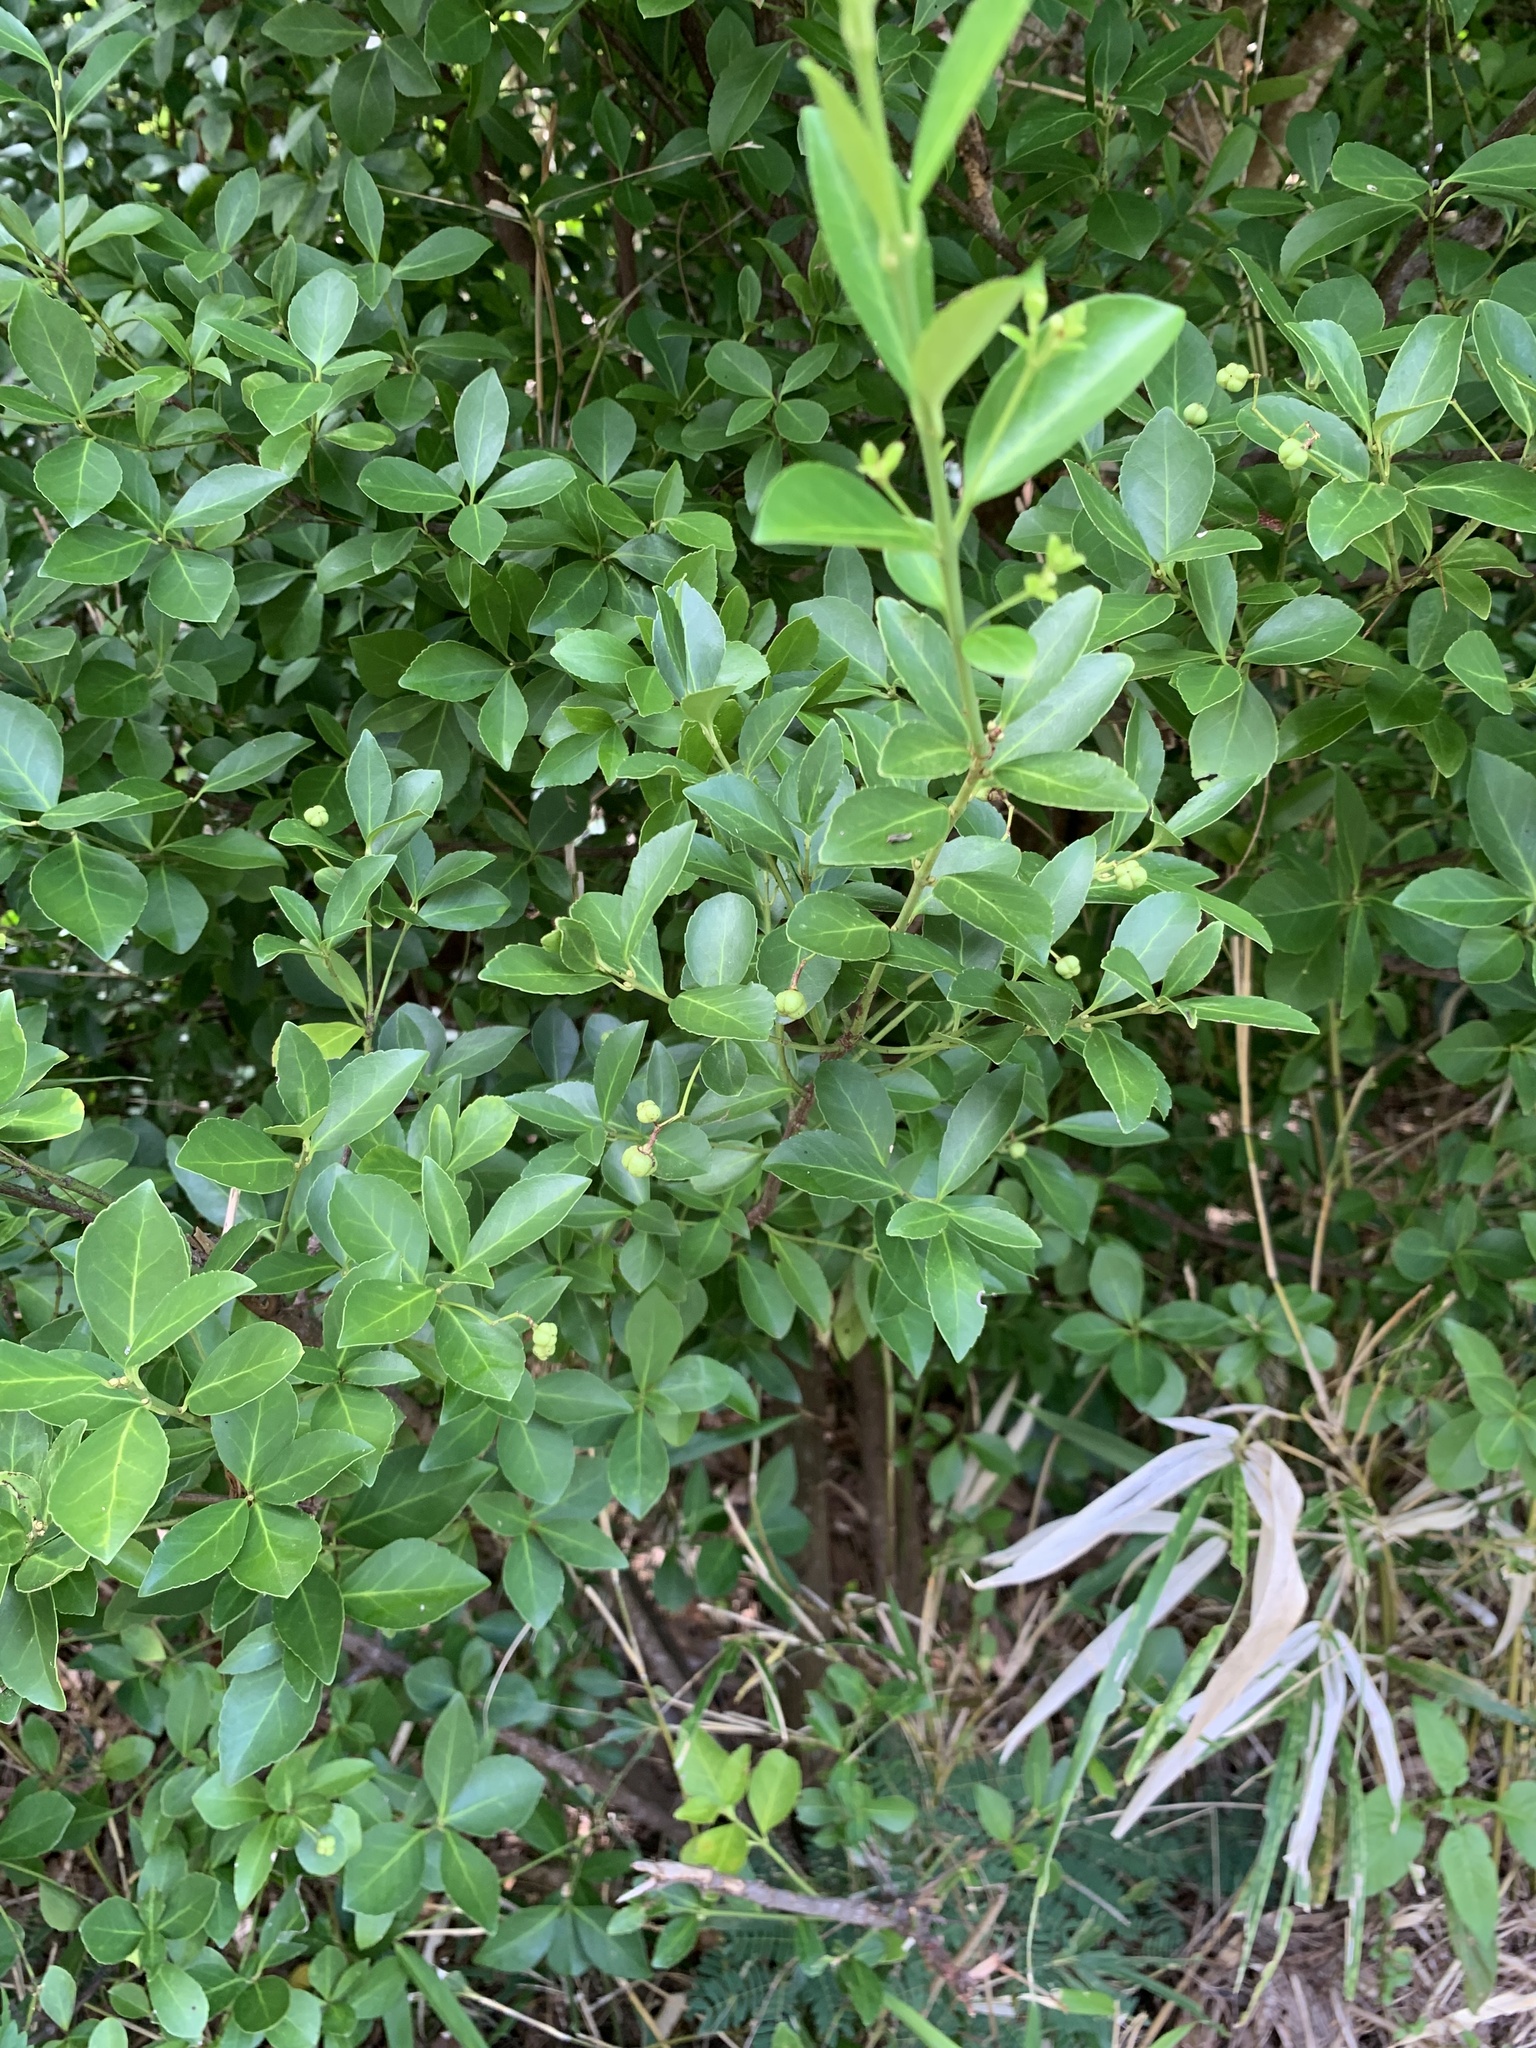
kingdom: Plantae
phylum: Tracheophyta
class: Magnoliopsida
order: Celastrales
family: Celastraceae
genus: Euonymus
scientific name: Euonymus boninensis
